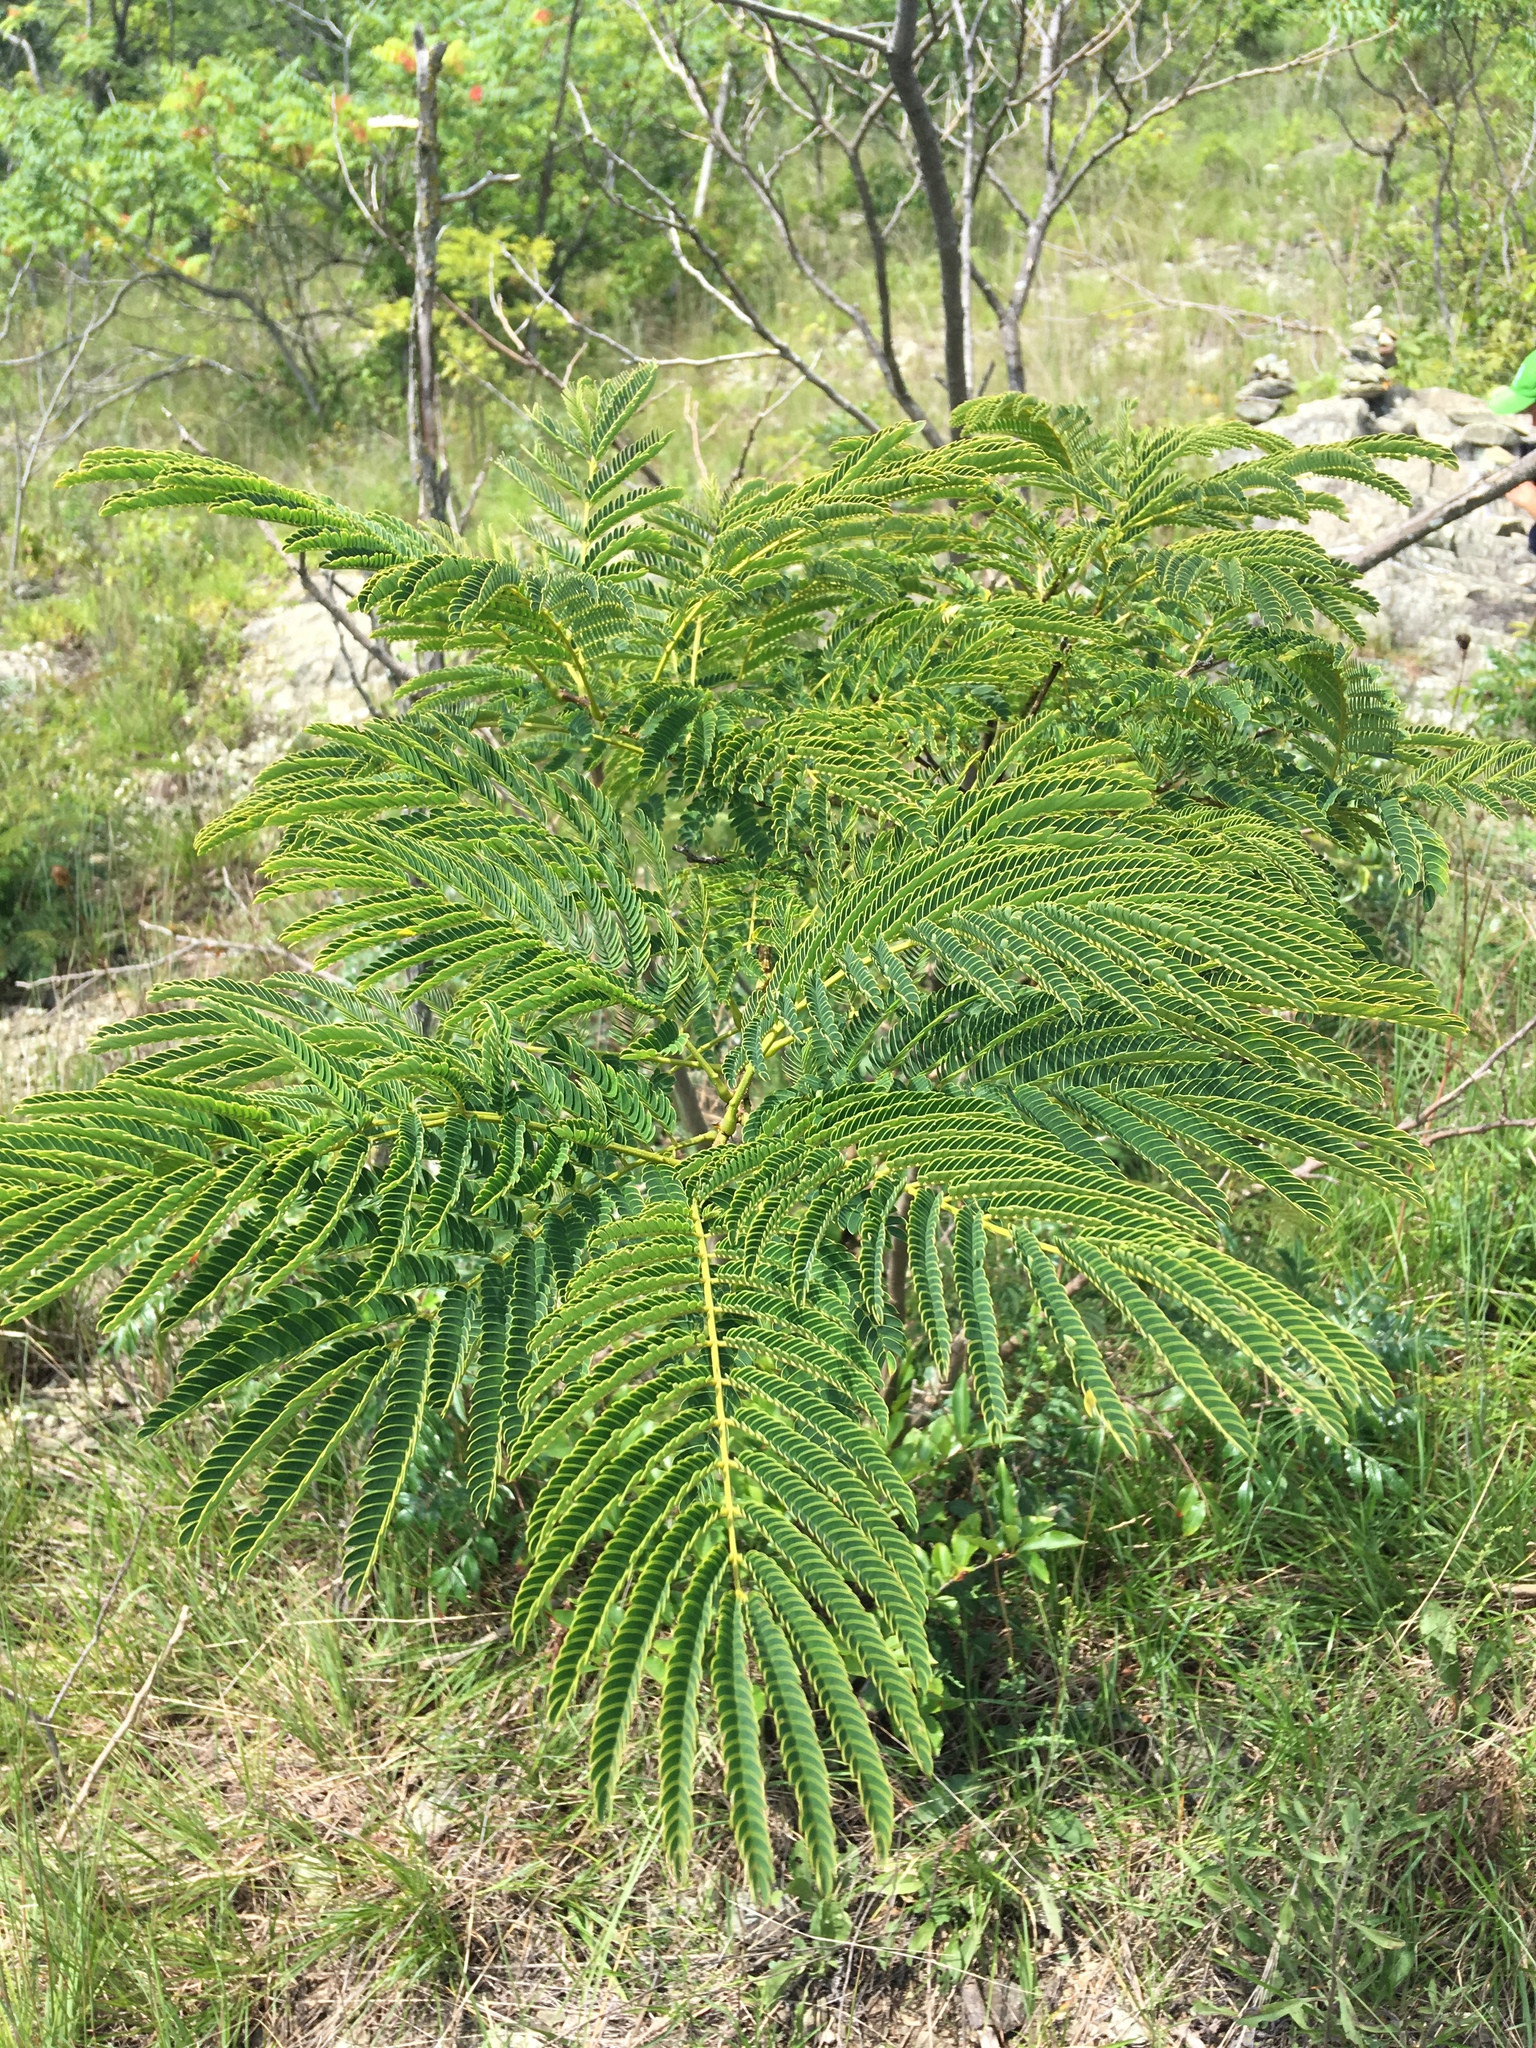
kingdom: Plantae
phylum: Tracheophyta
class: Magnoliopsida
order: Fabales
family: Fabaceae
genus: Albizia
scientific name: Albizia julibrissin
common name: Silktree
